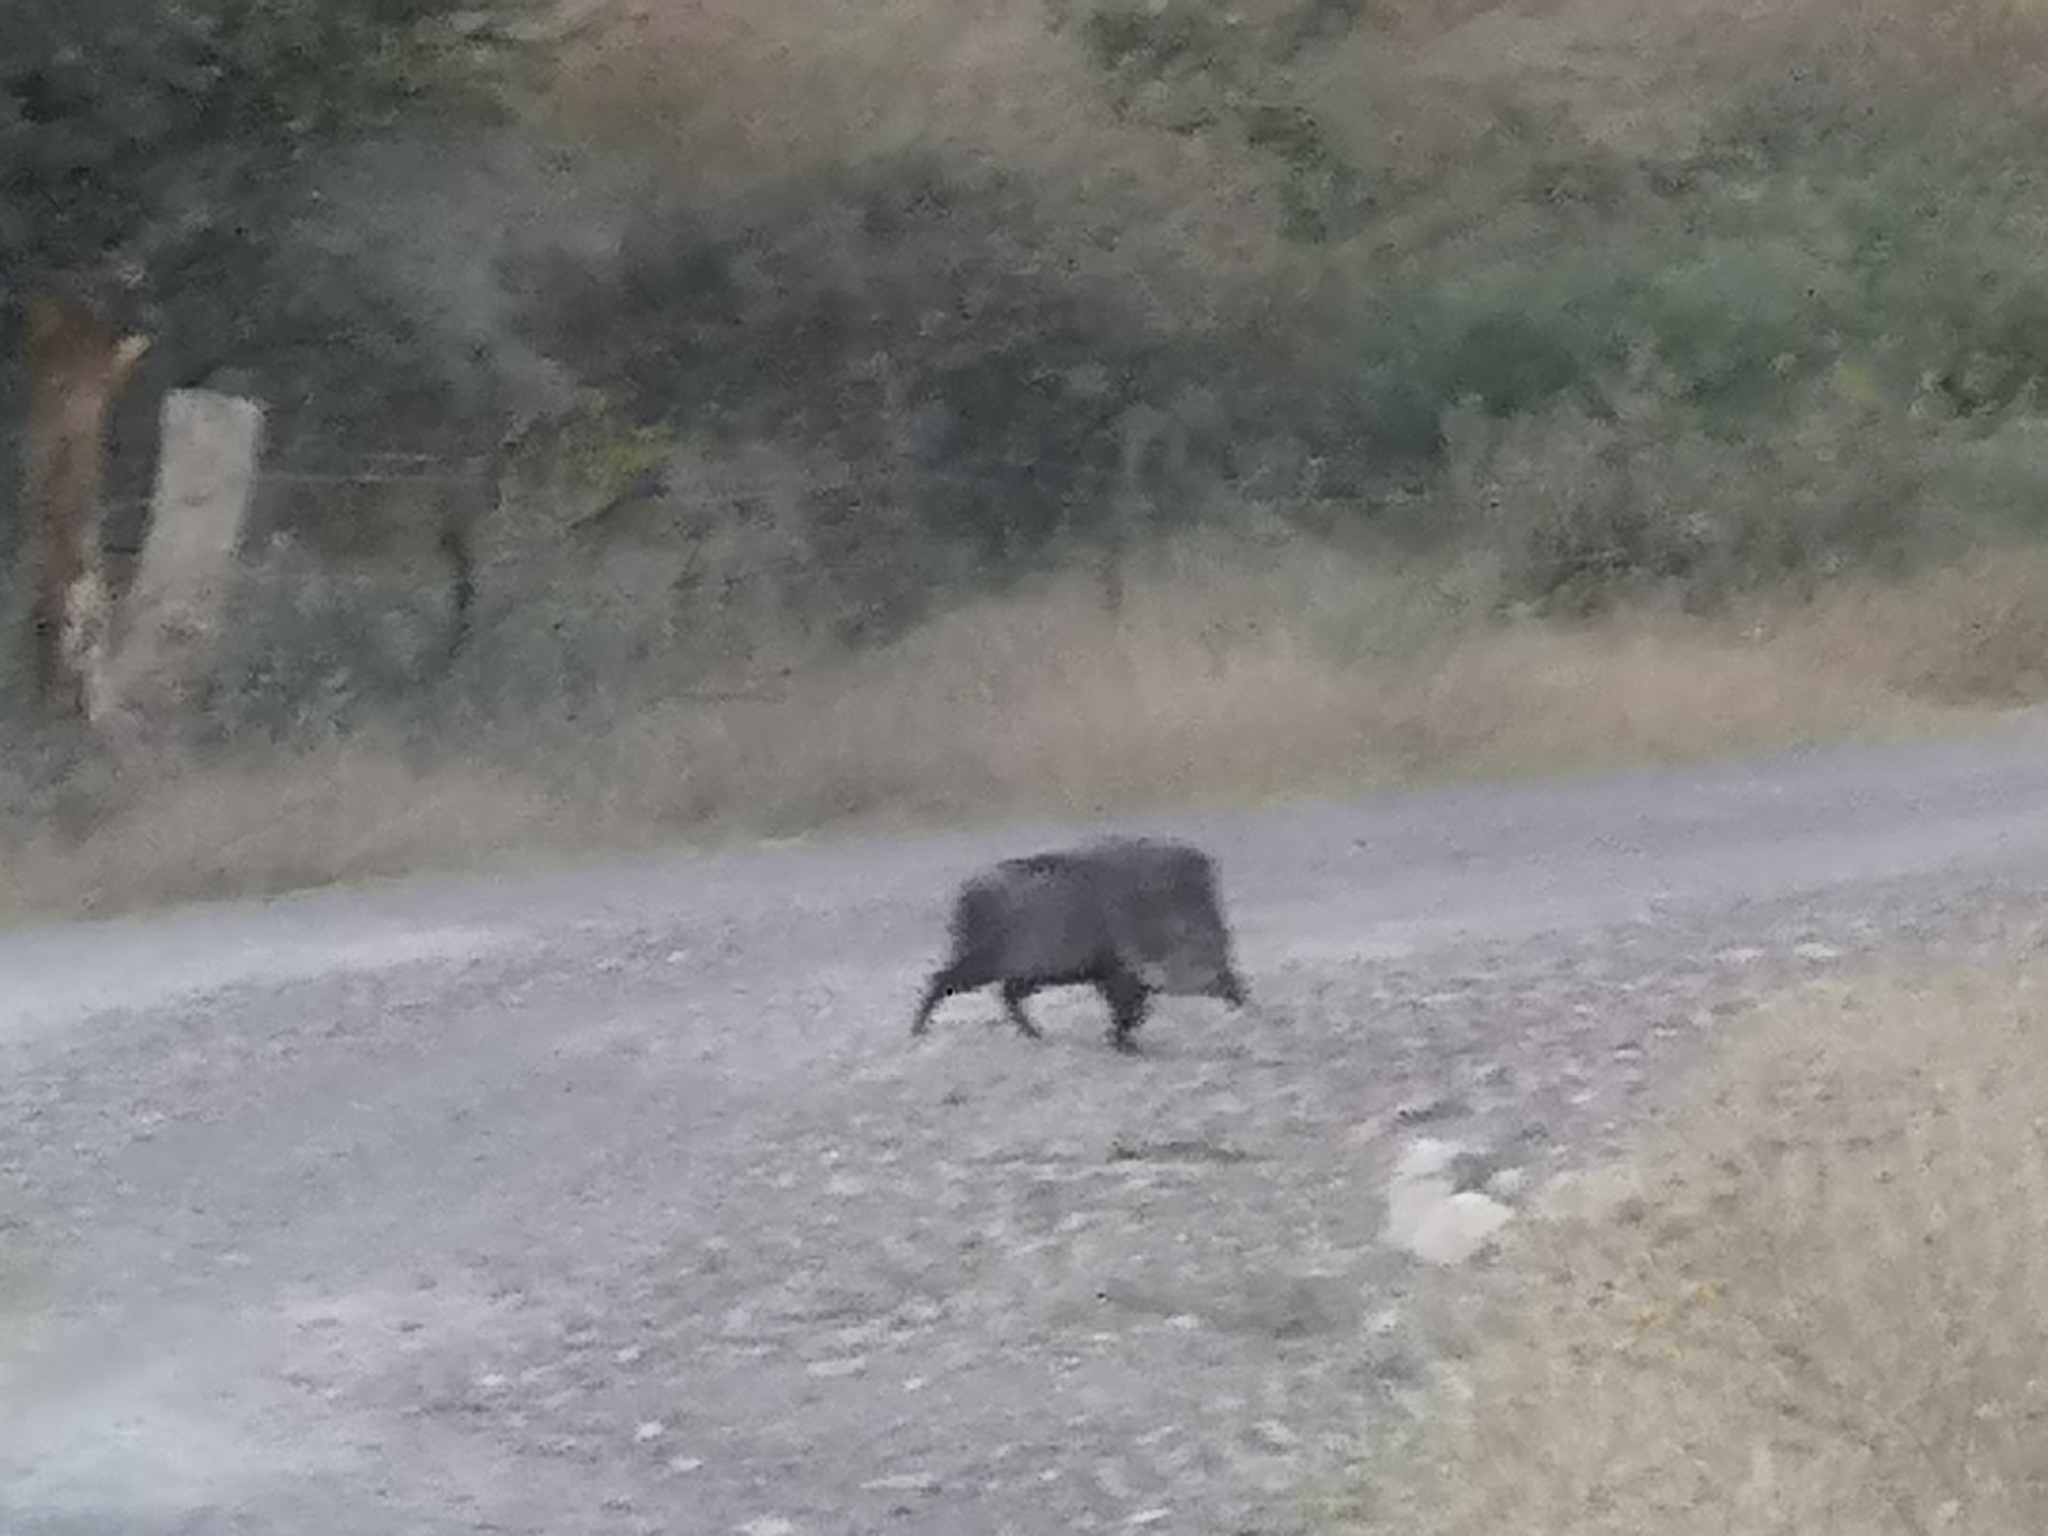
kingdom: Animalia
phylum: Chordata
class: Mammalia
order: Artiodactyla
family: Tayassuidae
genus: Pecari
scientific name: Pecari tajacu
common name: Collared peccary
